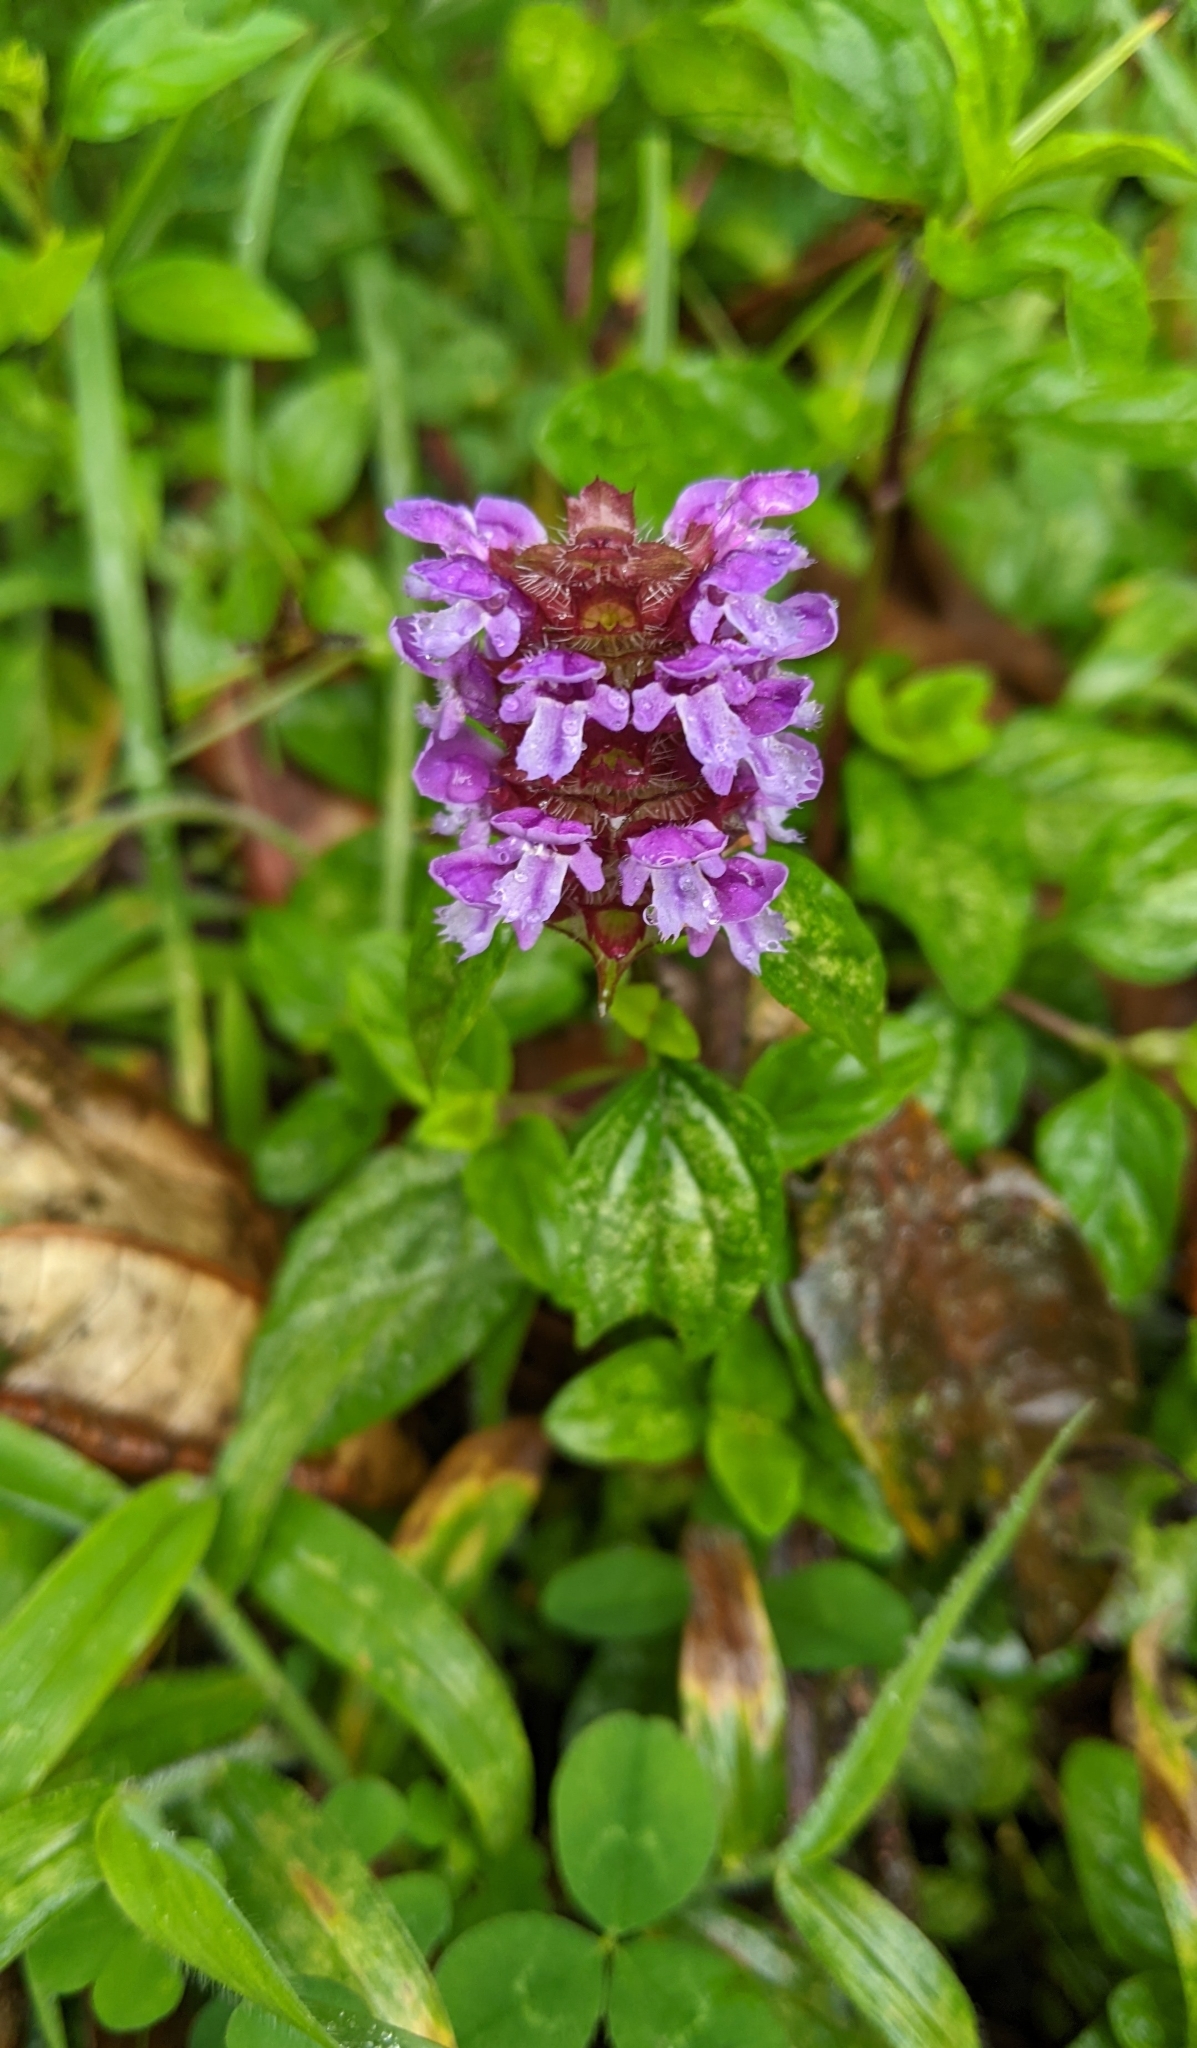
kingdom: Plantae
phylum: Tracheophyta
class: Magnoliopsida
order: Lamiales
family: Lamiaceae
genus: Prunella
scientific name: Prunella vulgaris
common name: Heal-all
